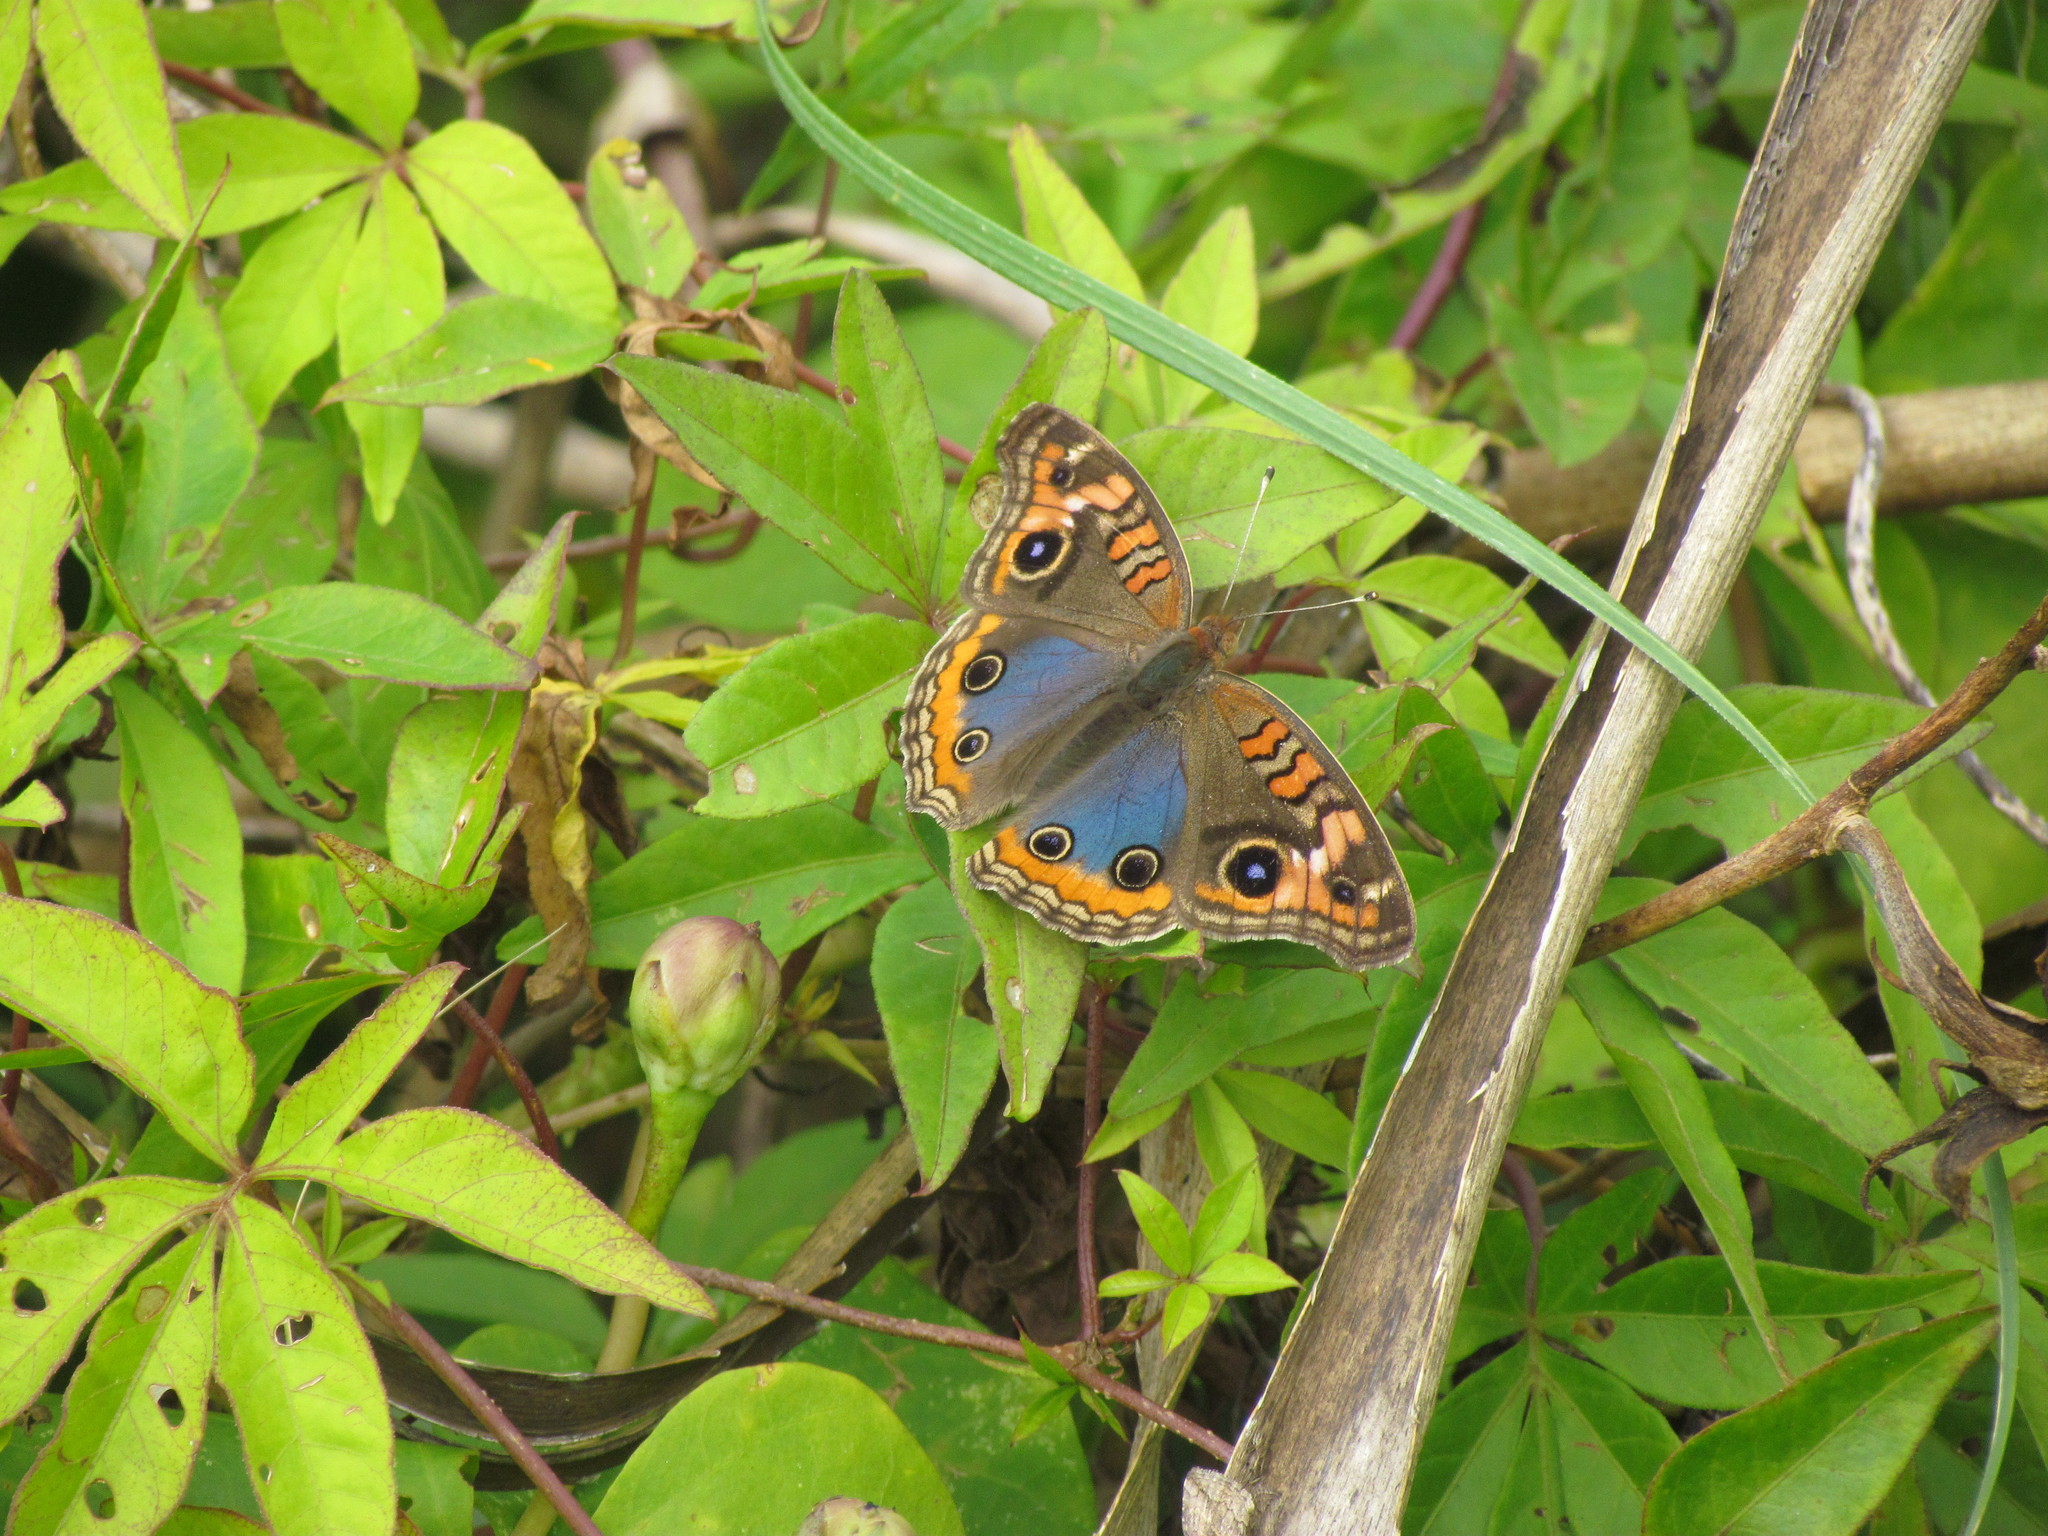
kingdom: Animalia
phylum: Arthropoda
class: Insecta
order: Lepidoptera
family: Nymphalidae
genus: Junonia
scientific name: Junonia lavinia
